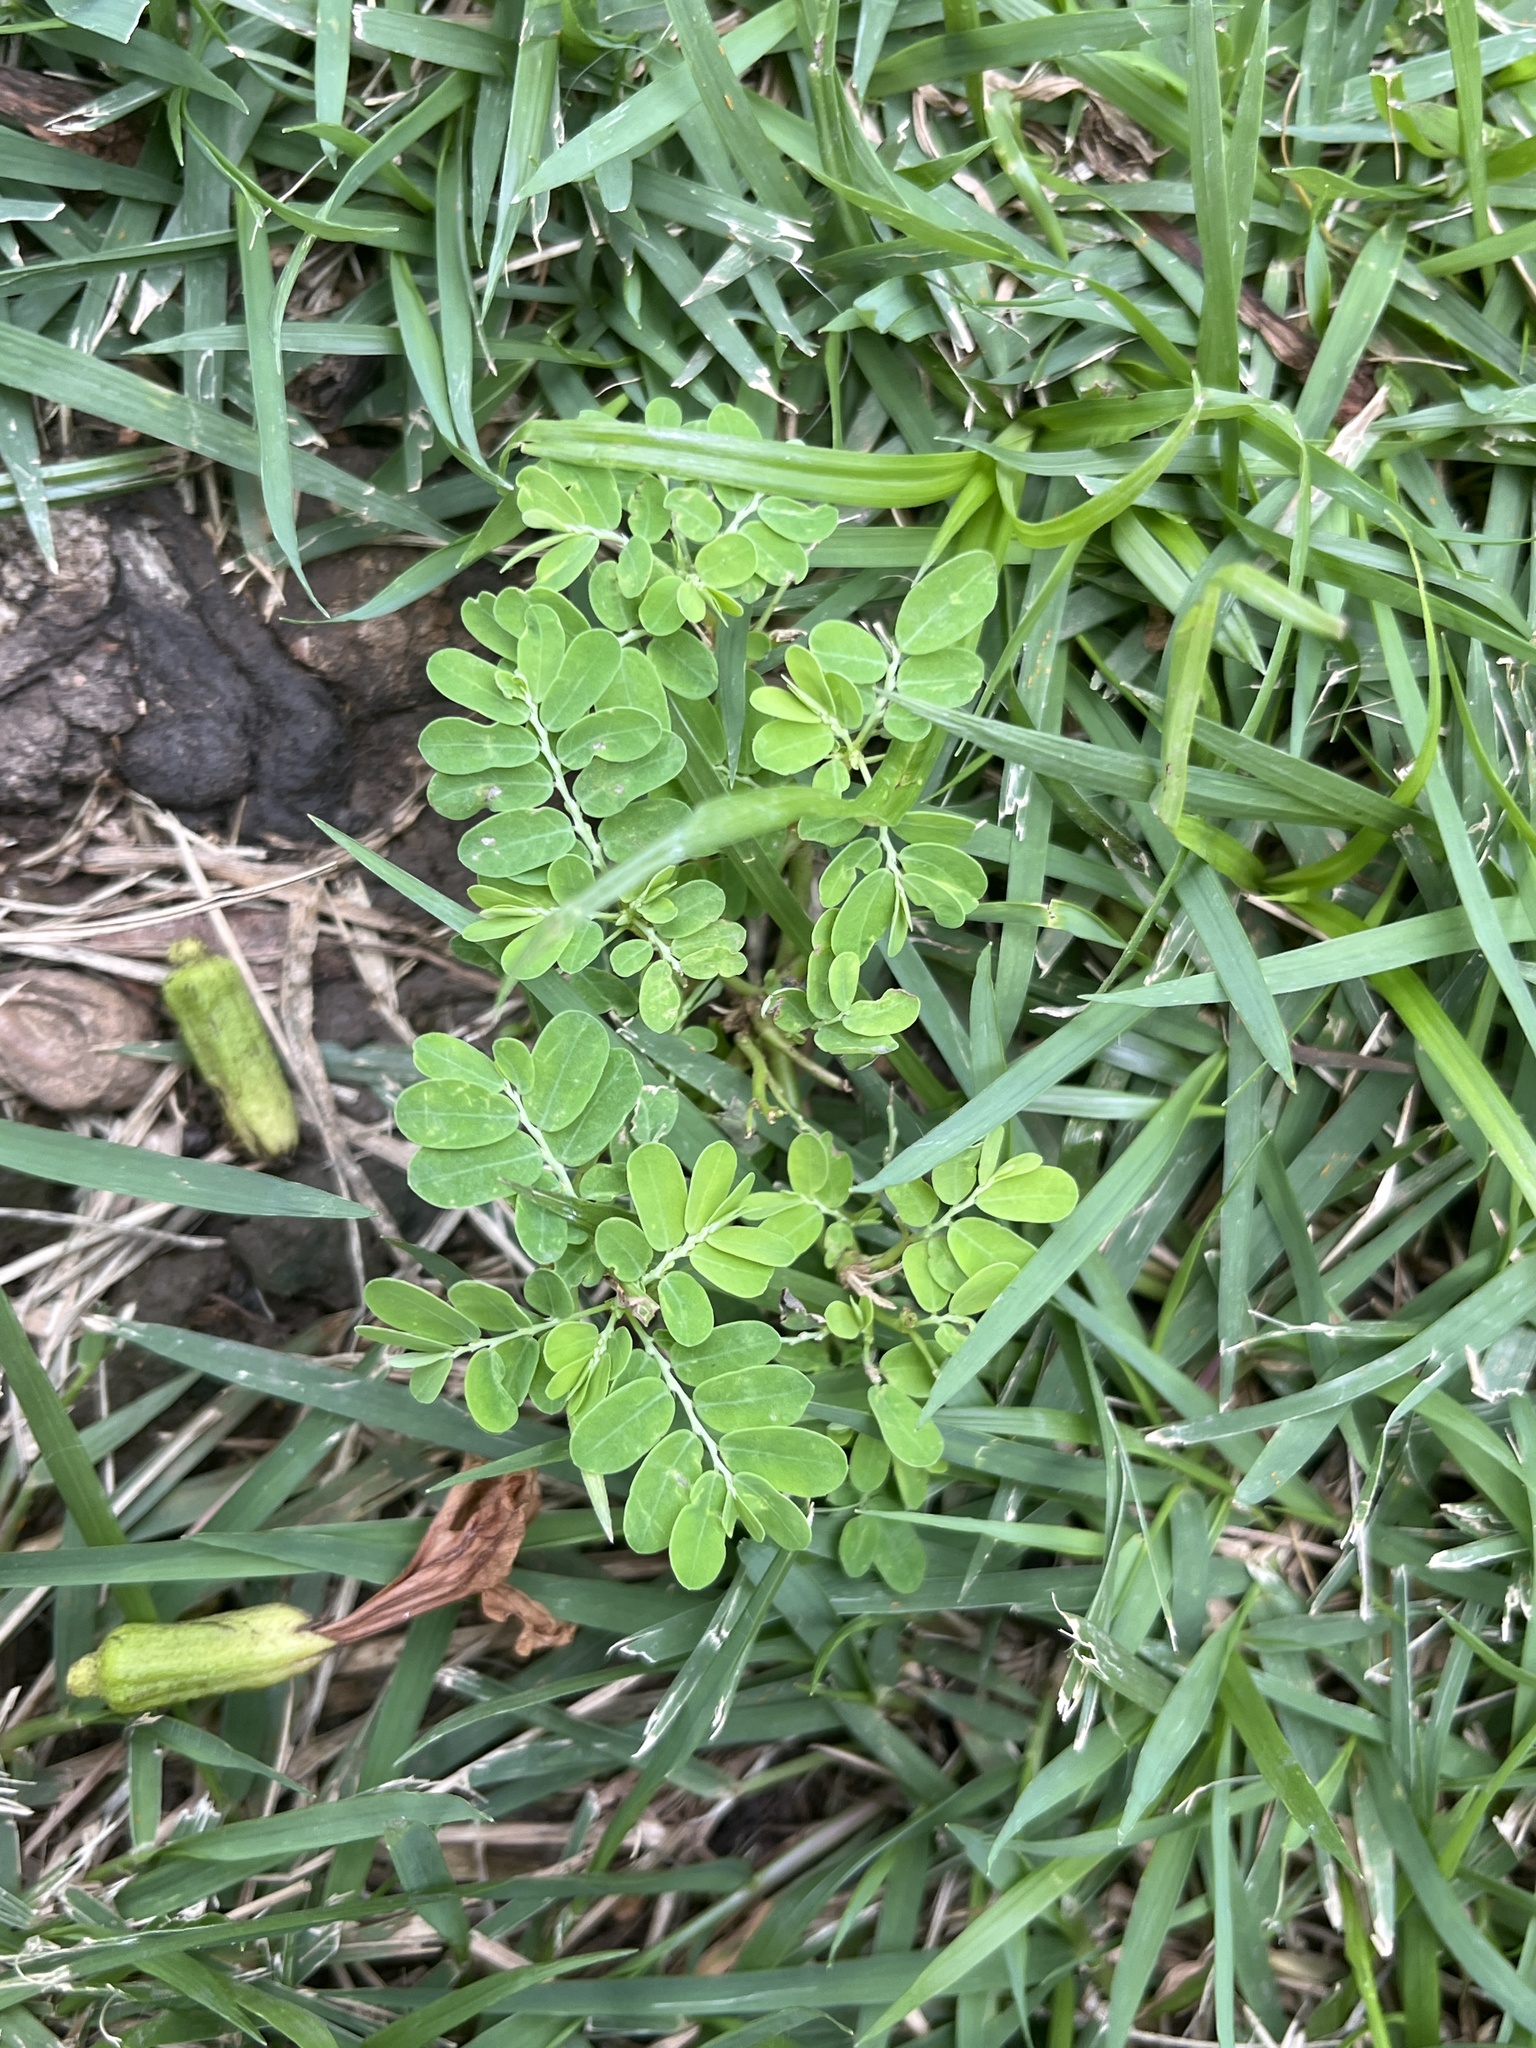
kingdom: Plantae
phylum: Tracheophyta
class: Magnoliopsida
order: Malpighiales
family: Phyllanthaceae
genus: Phyllanthus
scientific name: Phyllanthus amarus
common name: Carry me seed
